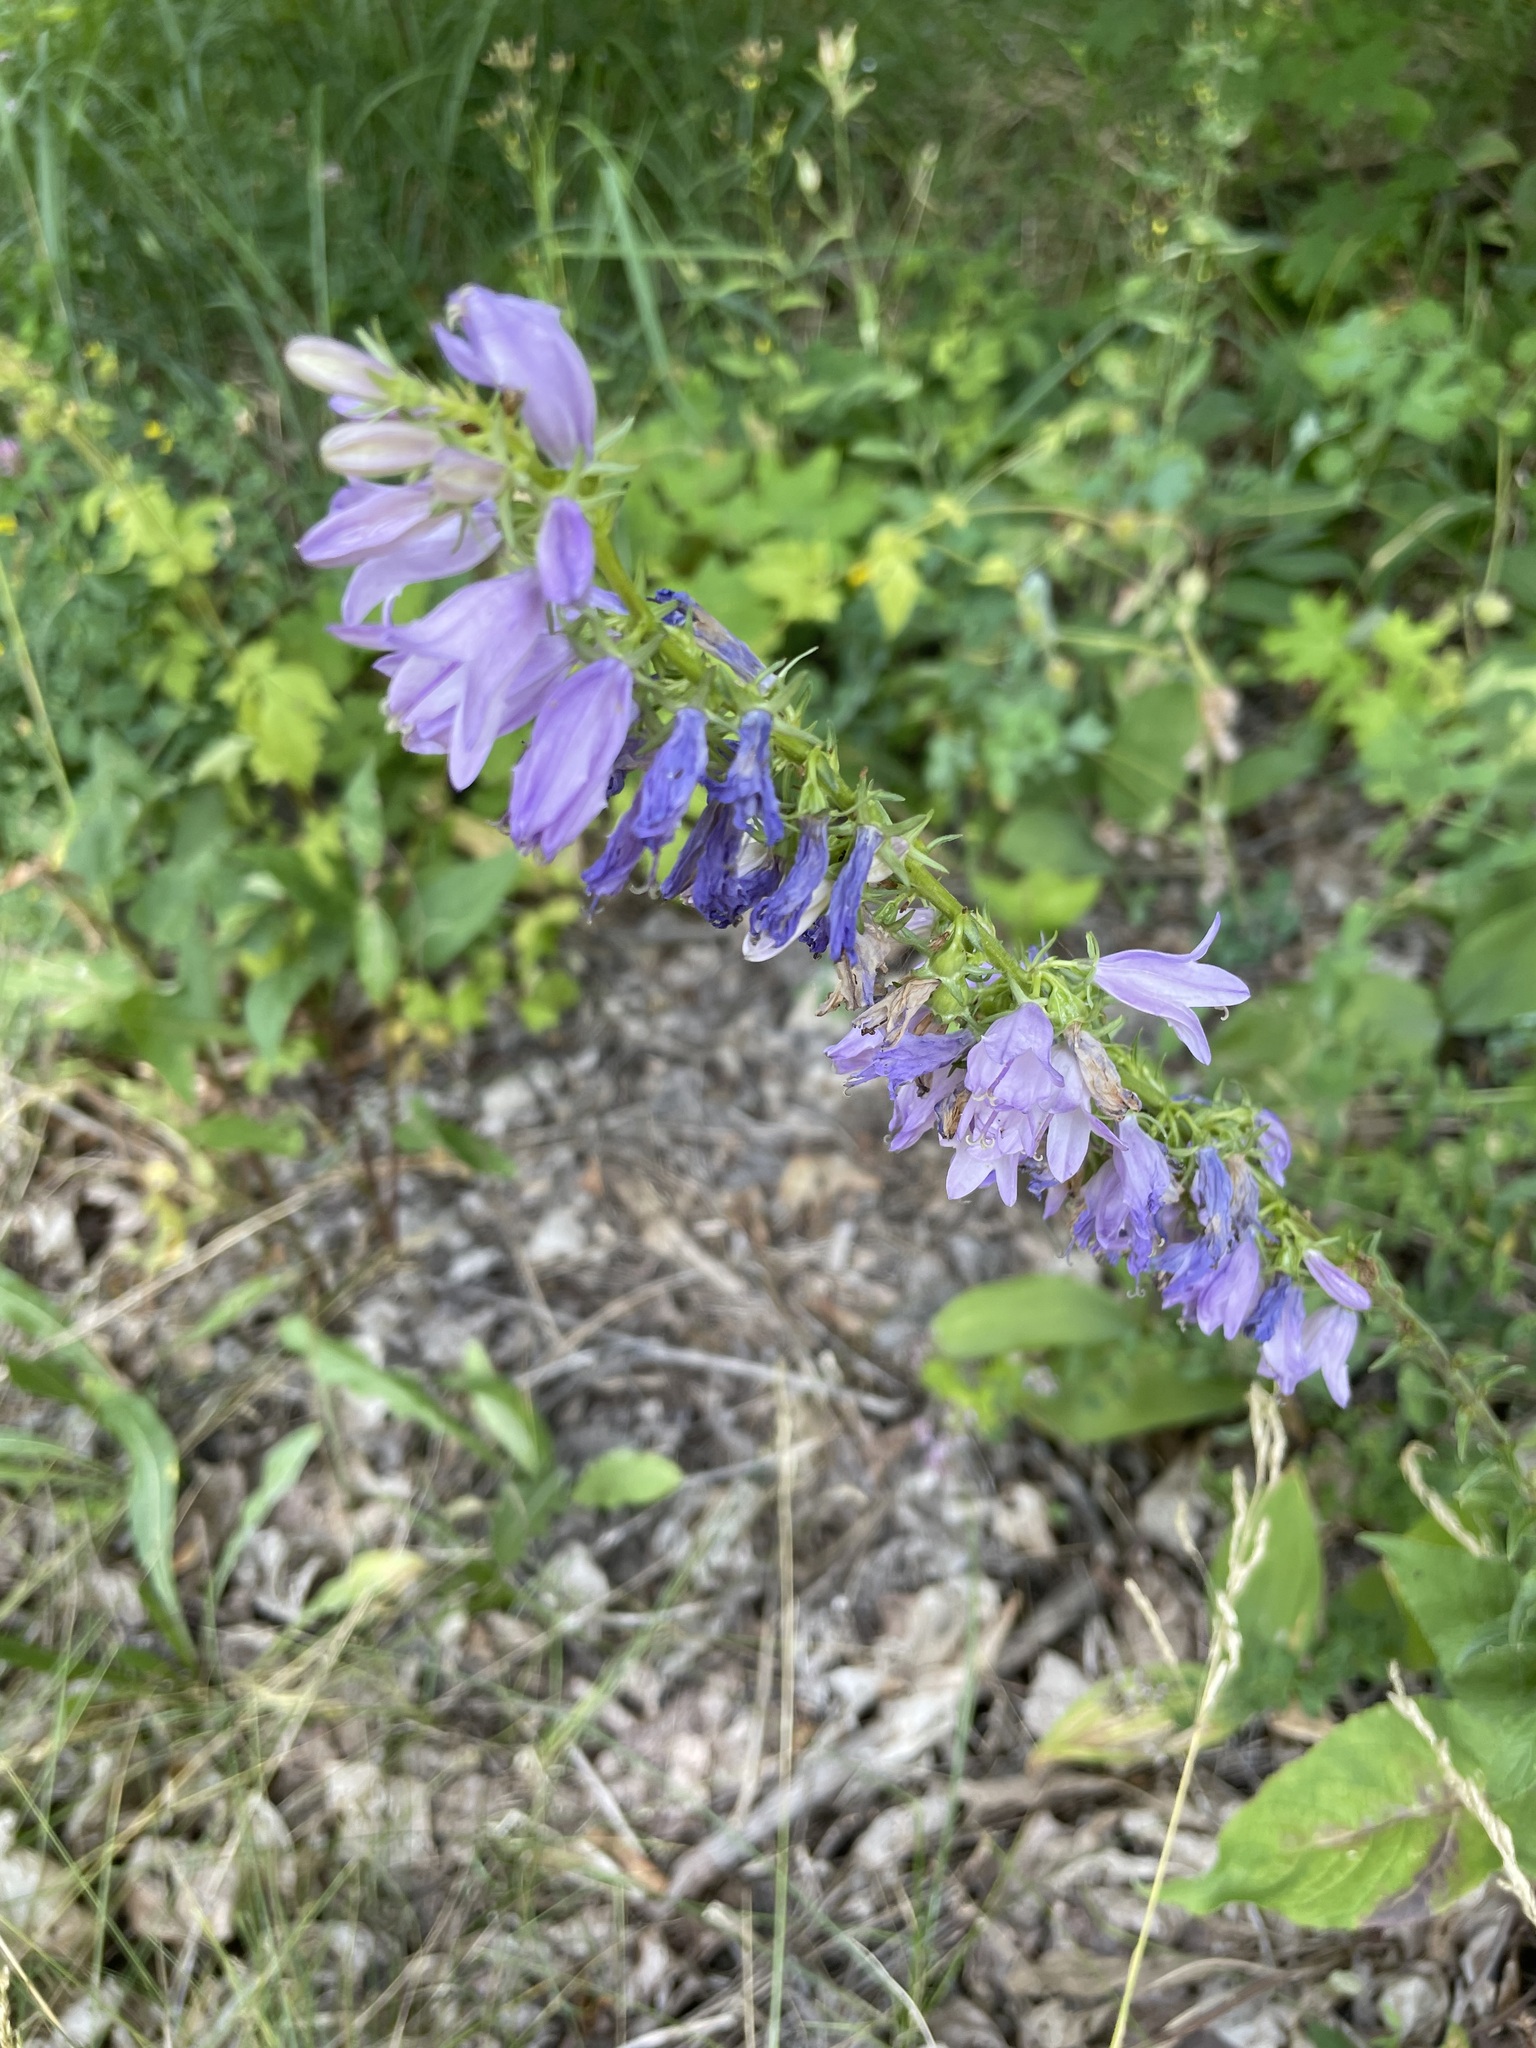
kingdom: Plantae
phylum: Tracheophyta
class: Magnoliopsida
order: Asterales
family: Campanulaceae
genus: Campanula
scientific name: Campanula bononiensis
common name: Pale bellflower
